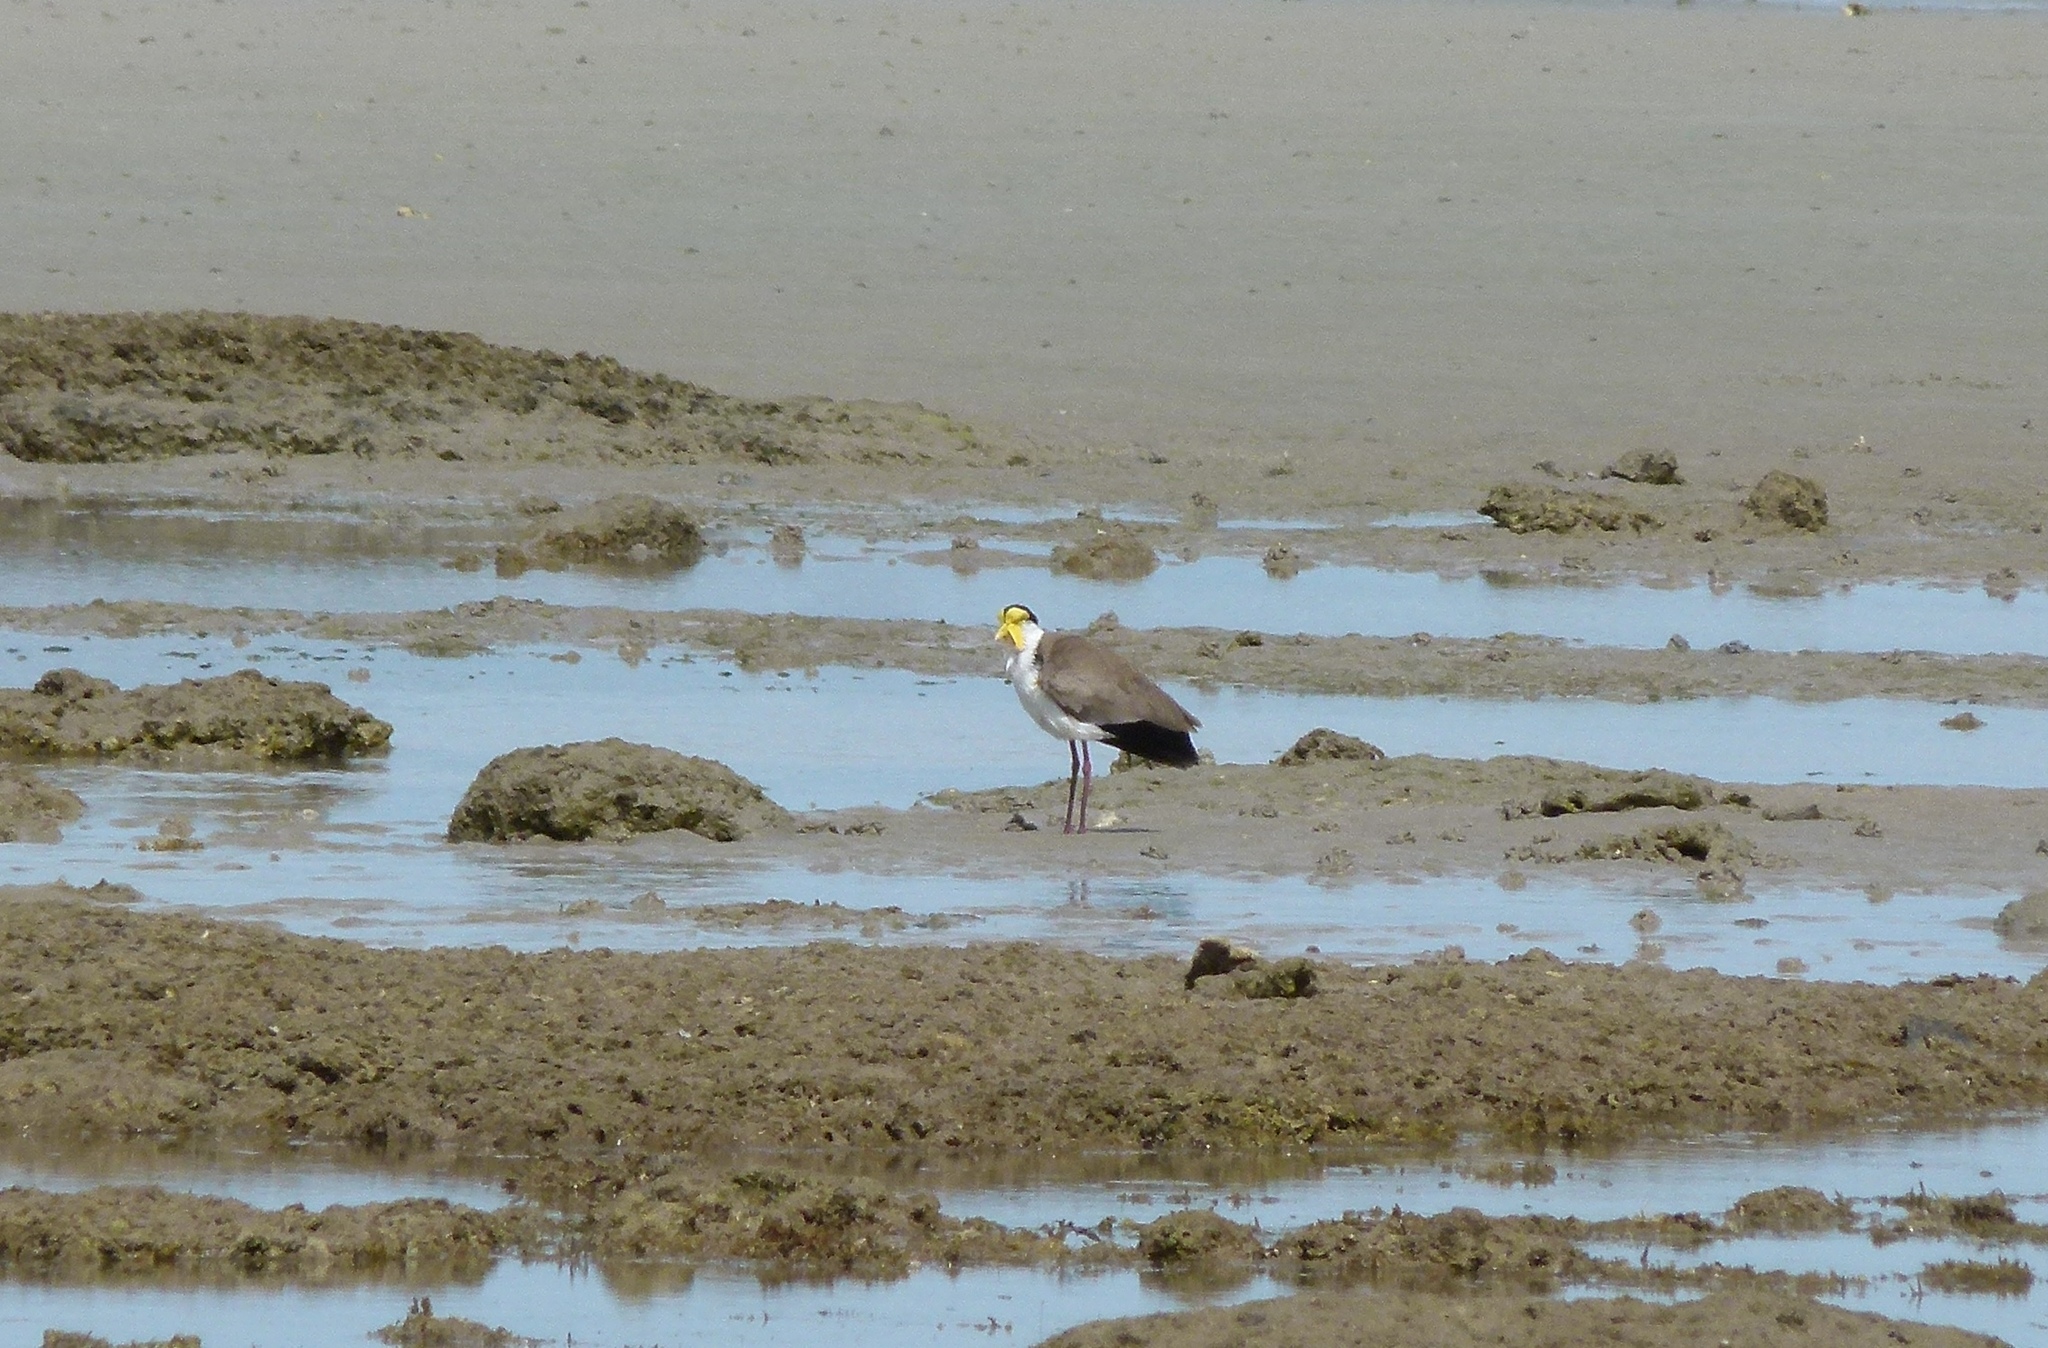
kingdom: Animalia
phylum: Chordata
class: Aves
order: Charadriiformes
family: Charadriidae
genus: Vanellus
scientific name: Vanellus miles
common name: Masked lapwing
